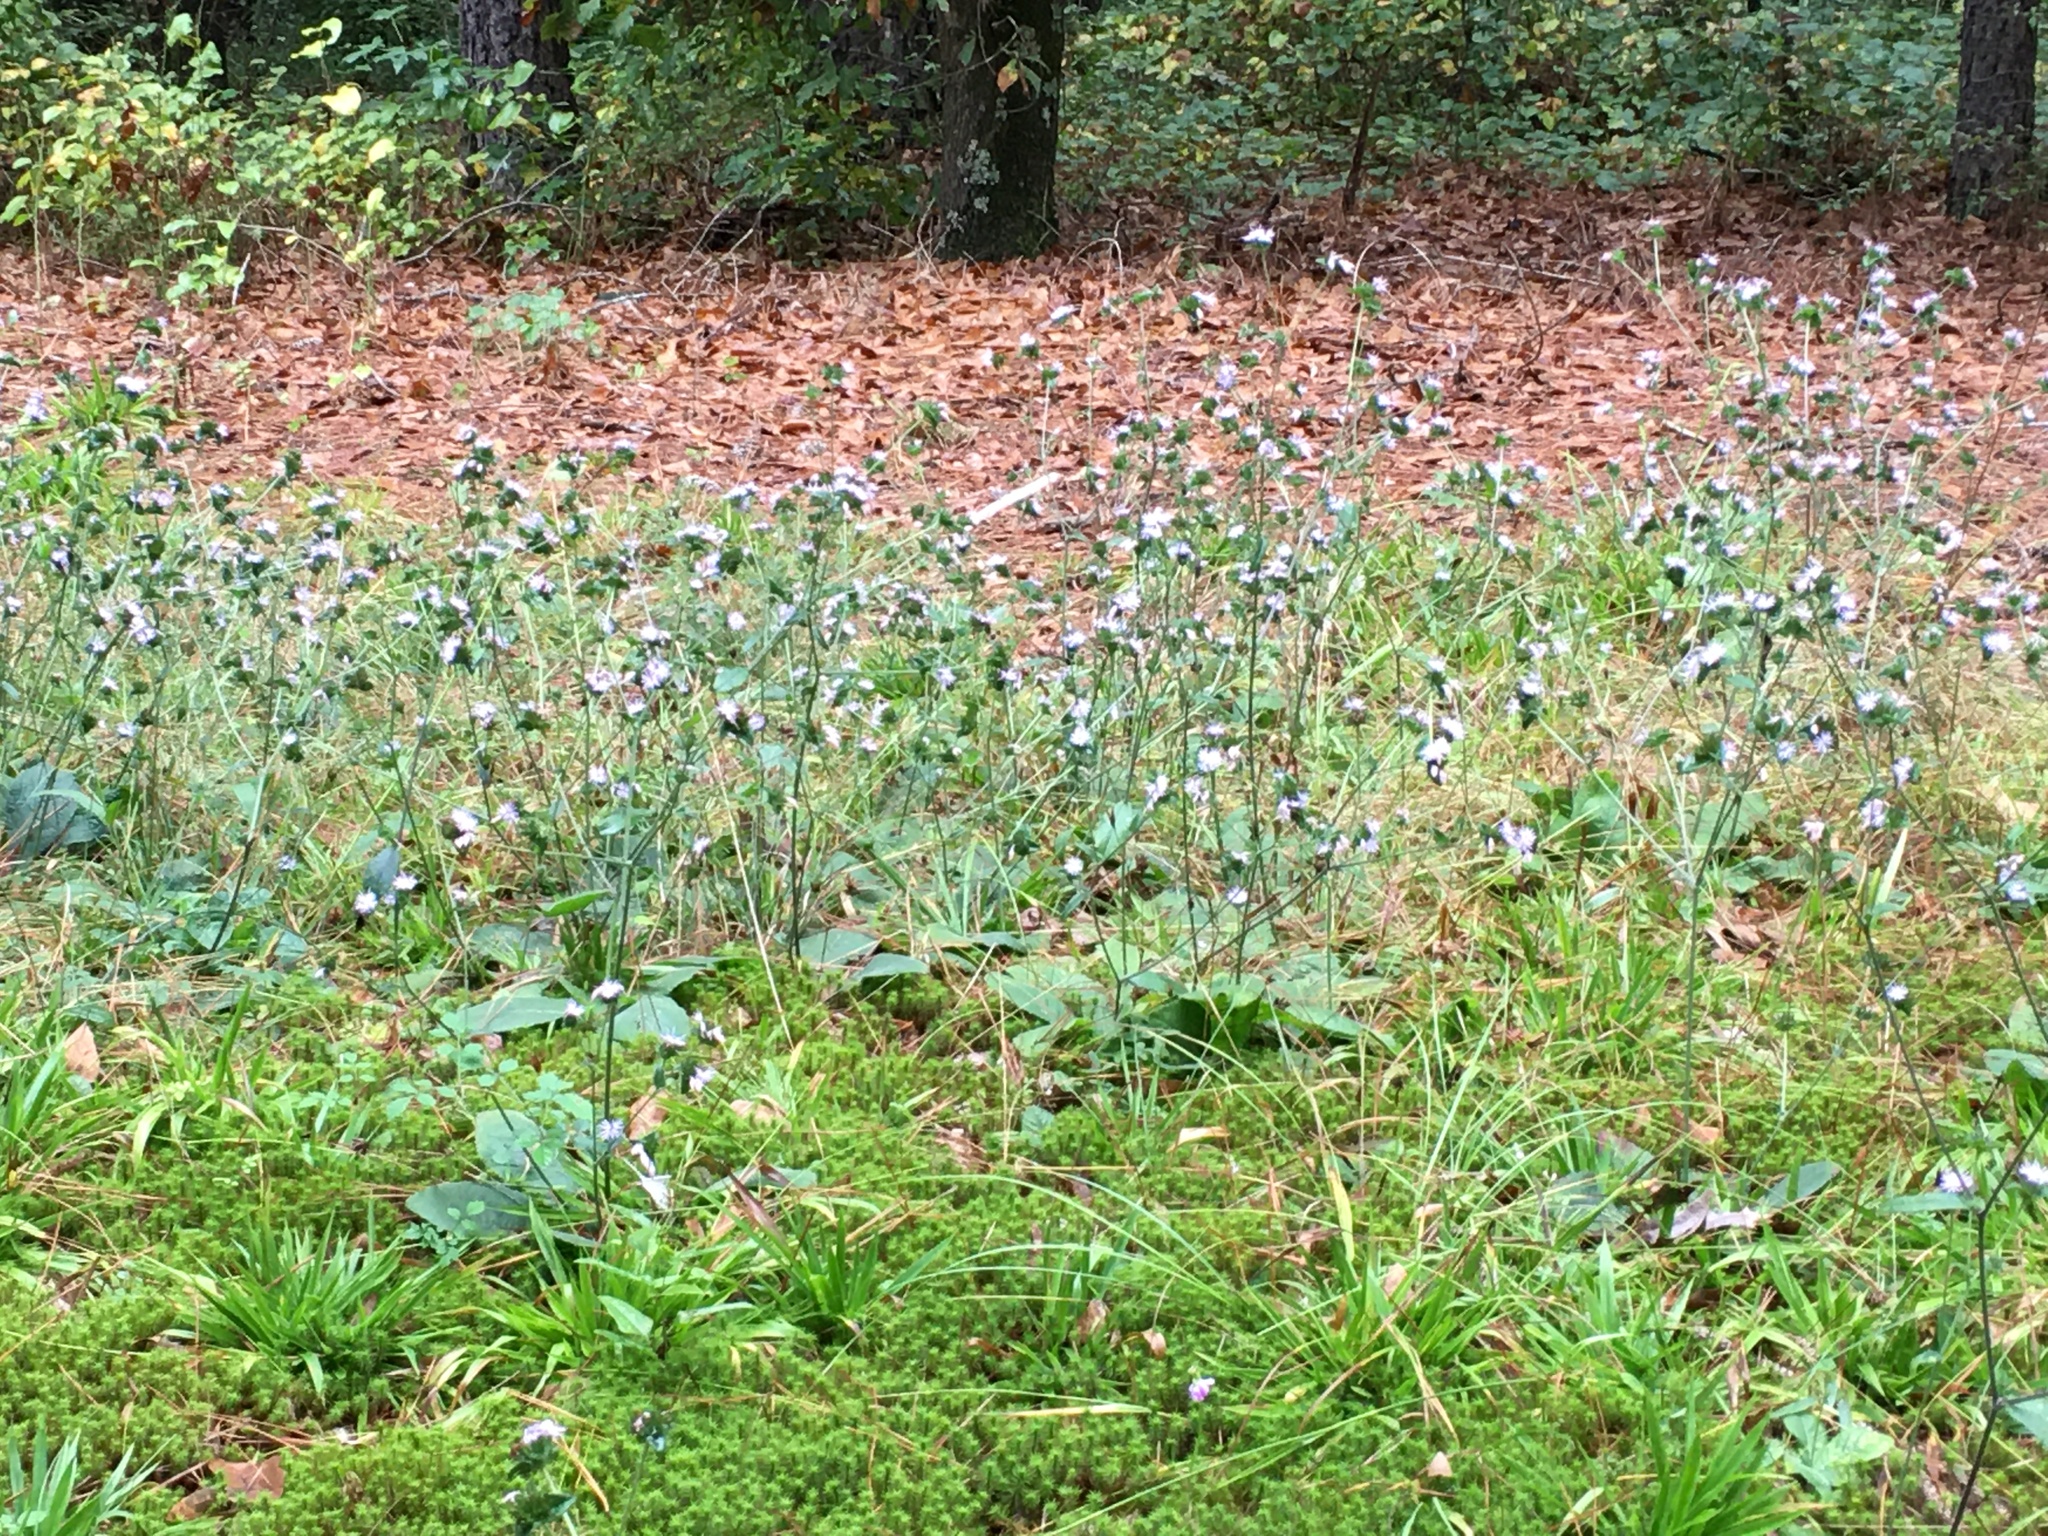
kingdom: Plantae
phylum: Tracheophyta
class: Magnoliopsida
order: Asterales
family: Asteraceae
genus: Elephantopus
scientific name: Elephantopus tomentosus
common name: Tobacco-weed
